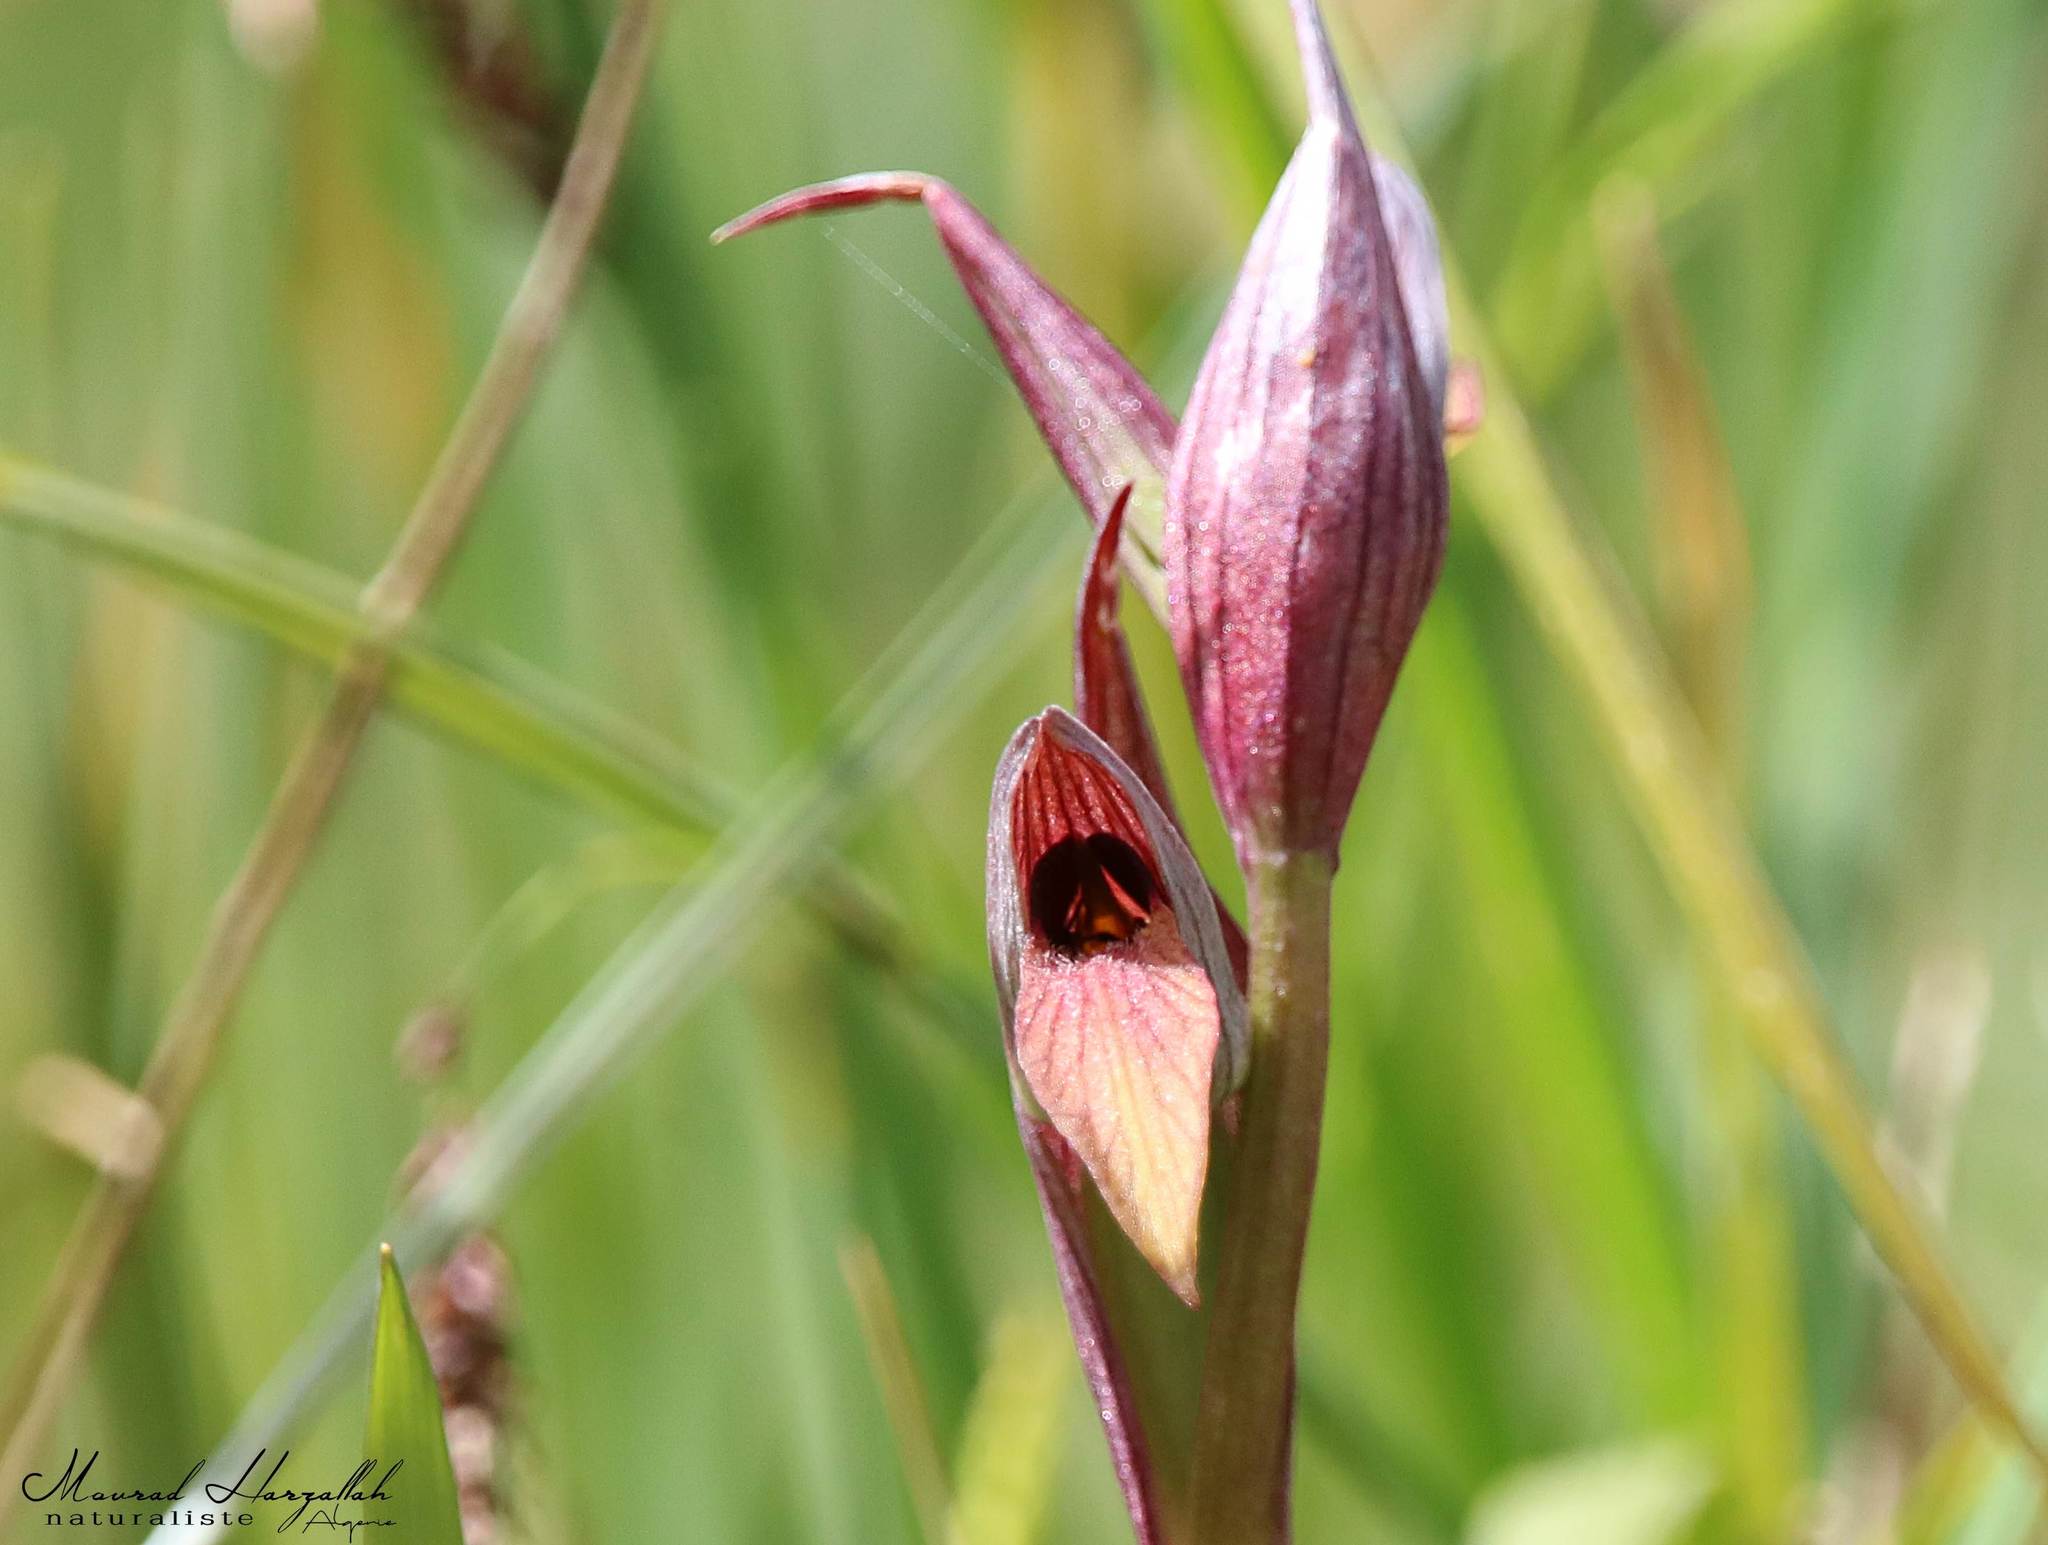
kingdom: Plantae
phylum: Tracheophyta
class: Liliopsida
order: Asparagales
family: Orchidaceae
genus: Serapias
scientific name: Serapias lingua
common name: Tongue-orchid
